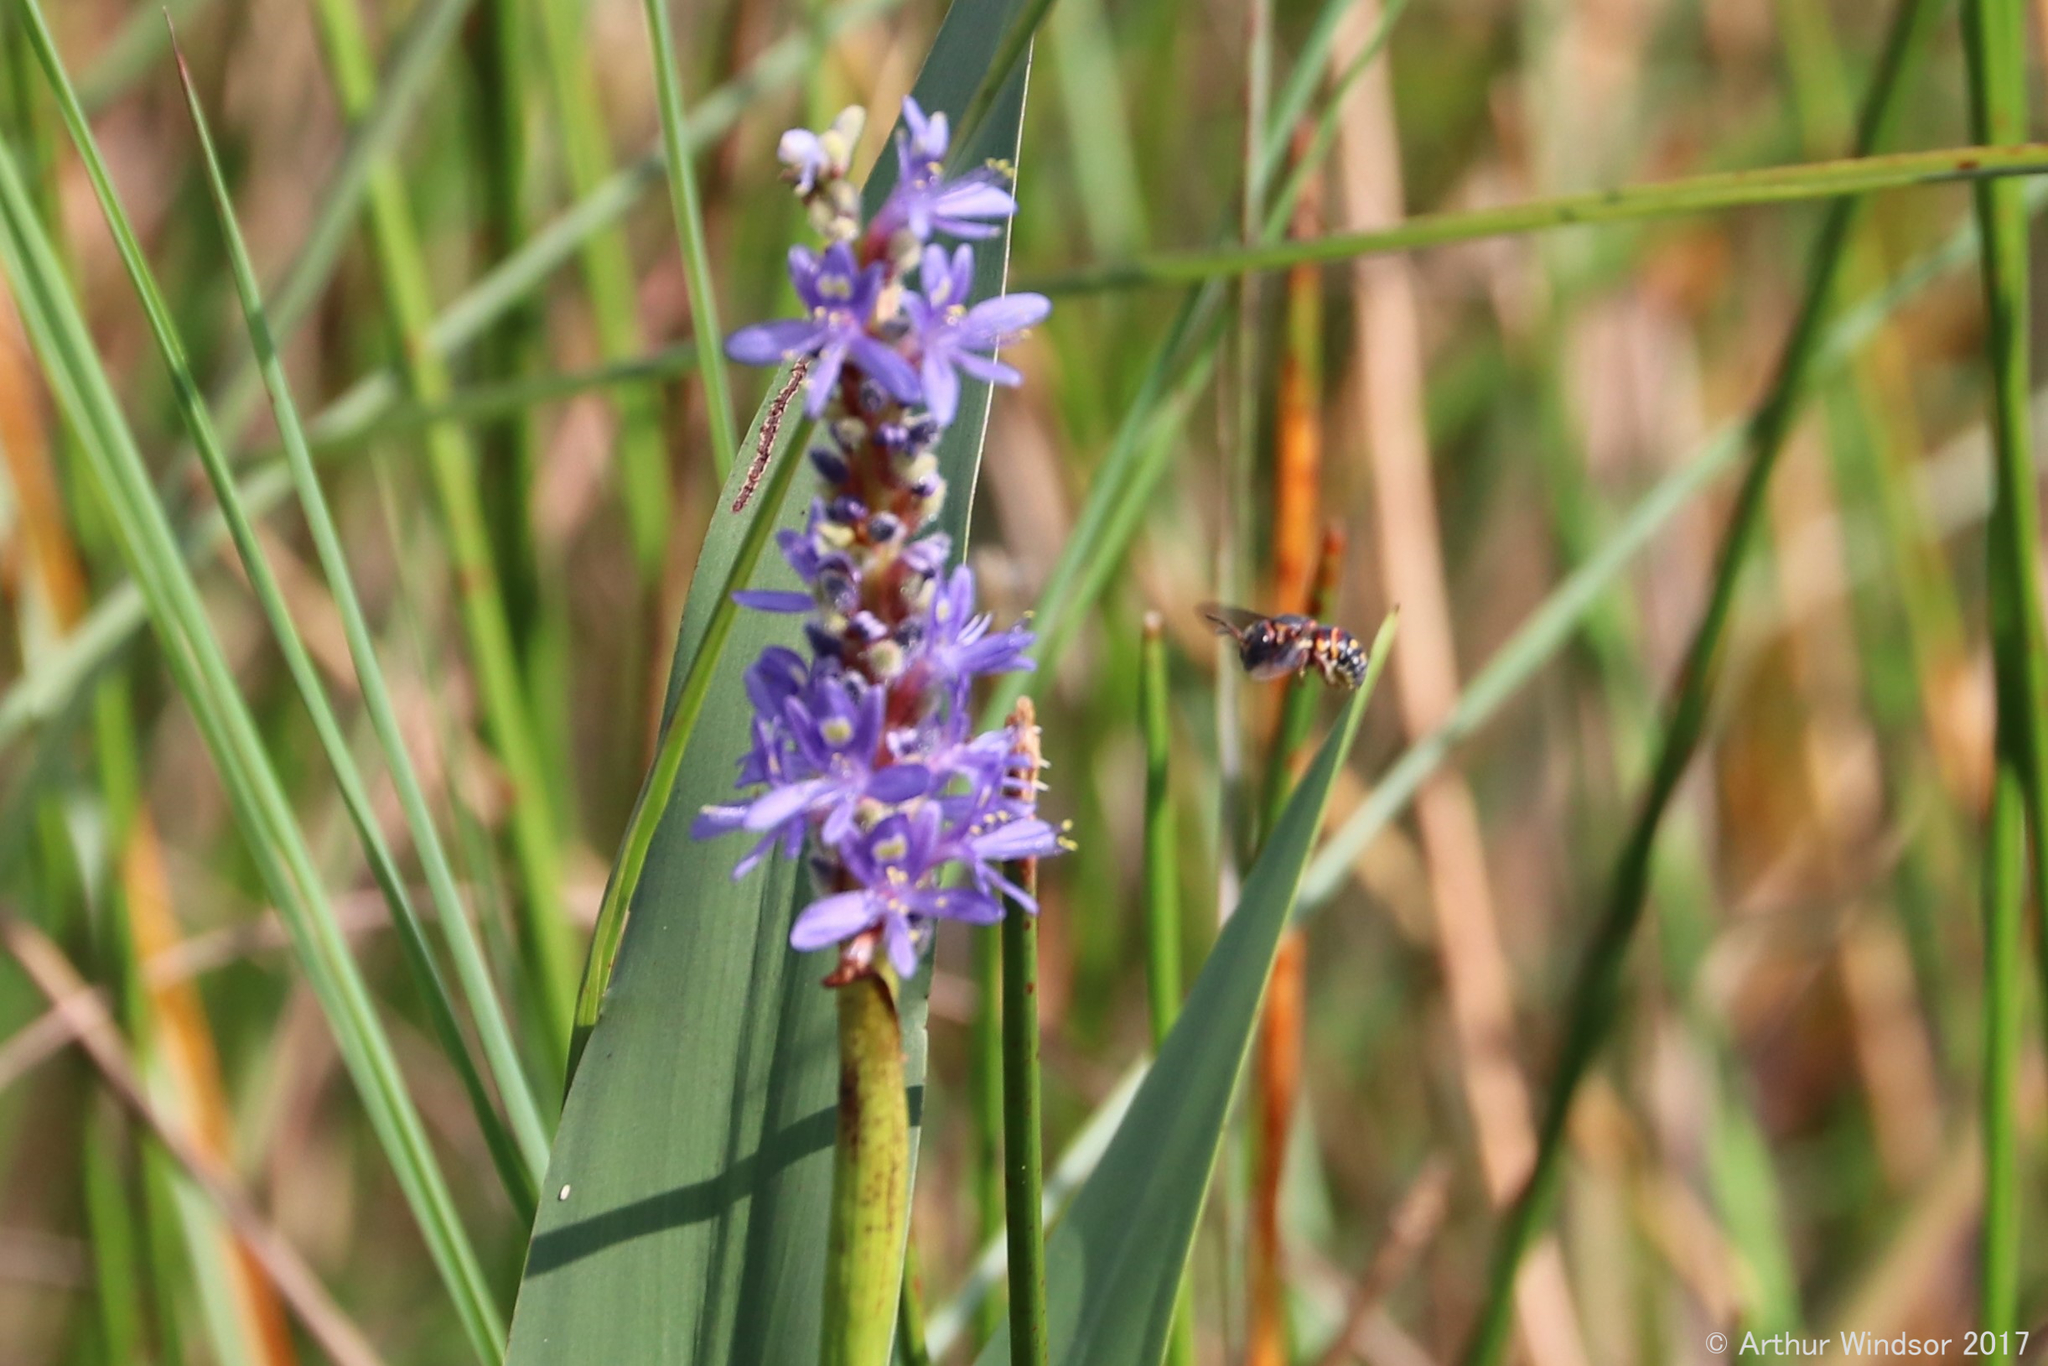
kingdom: Animalia
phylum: Arthropoda
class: Insecta
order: Hymenoptera
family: Megachilidae
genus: Anthidiellum
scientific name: Anthidiellum perplexum
